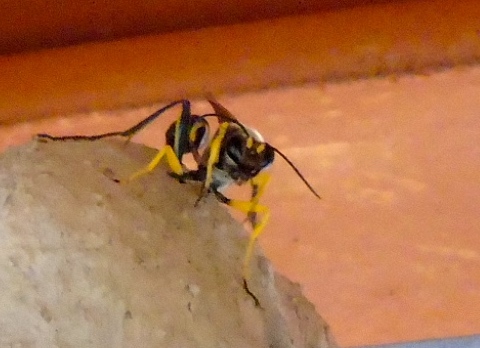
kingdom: Animalia
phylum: Arthropoda
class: Insecta
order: Hymenoptera
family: Sphecidae
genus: Sceliphron
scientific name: Sceliphron
